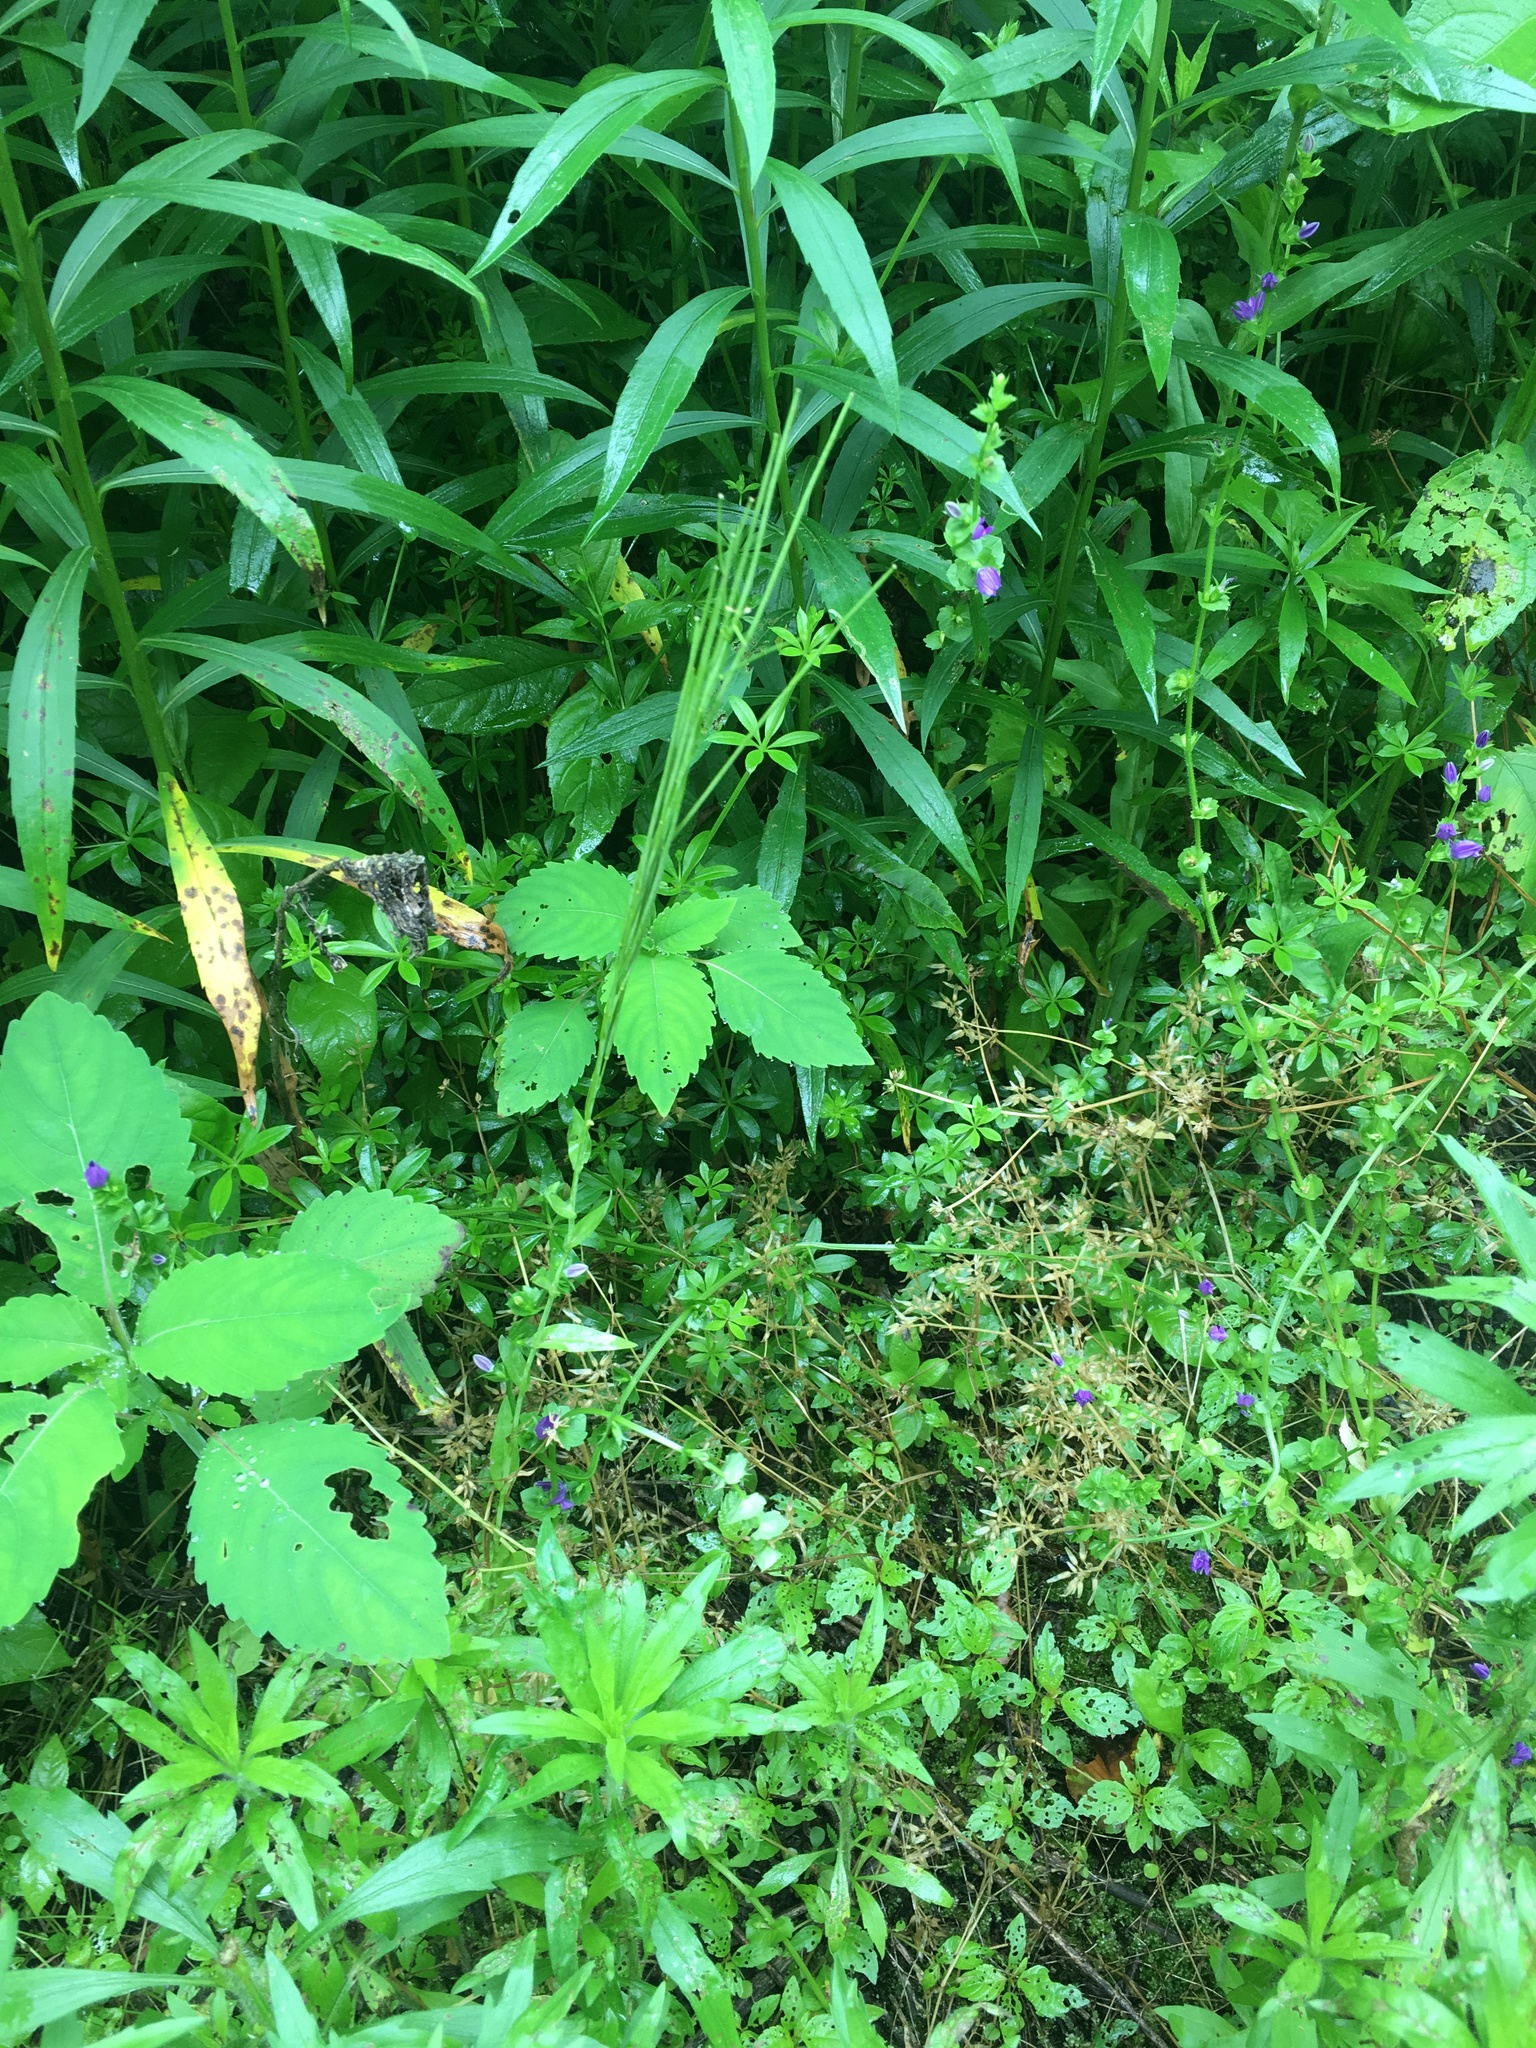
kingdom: Plantae
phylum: Tracheophyta
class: Magnoliopsida
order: Brassicales
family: Brassicaceae
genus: Turritis
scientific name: Turritis glabra
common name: Tower rockcress
